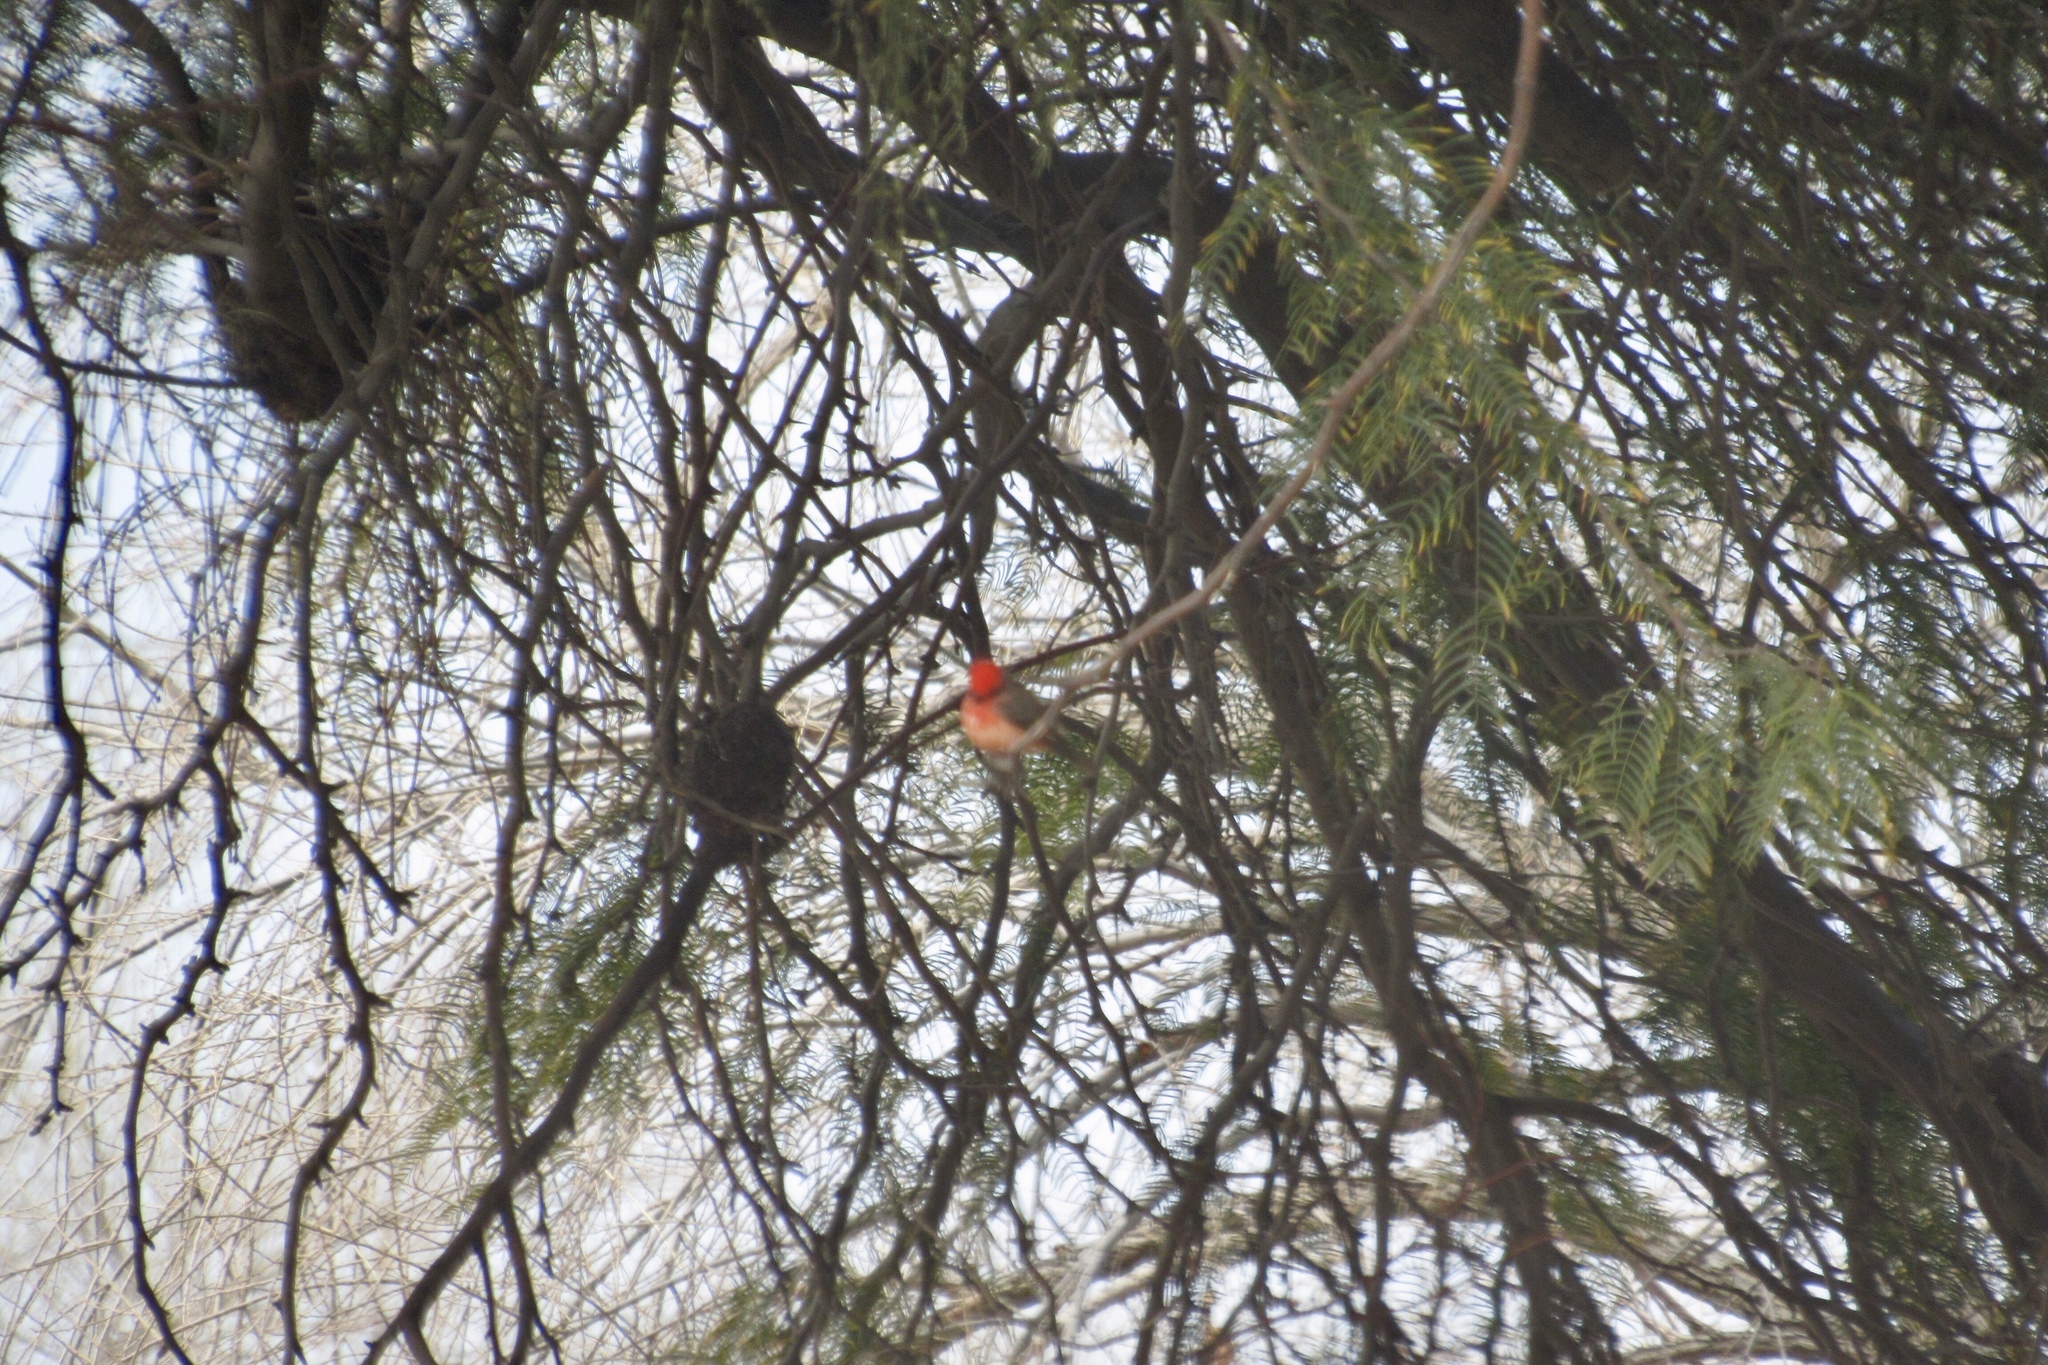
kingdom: Animalia
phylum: Chordata
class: Aves
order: Passeriformes
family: Tyrannidae
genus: Pyrocephalus
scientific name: Pyrocephalus rubinus
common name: Vermilion flycatcher
